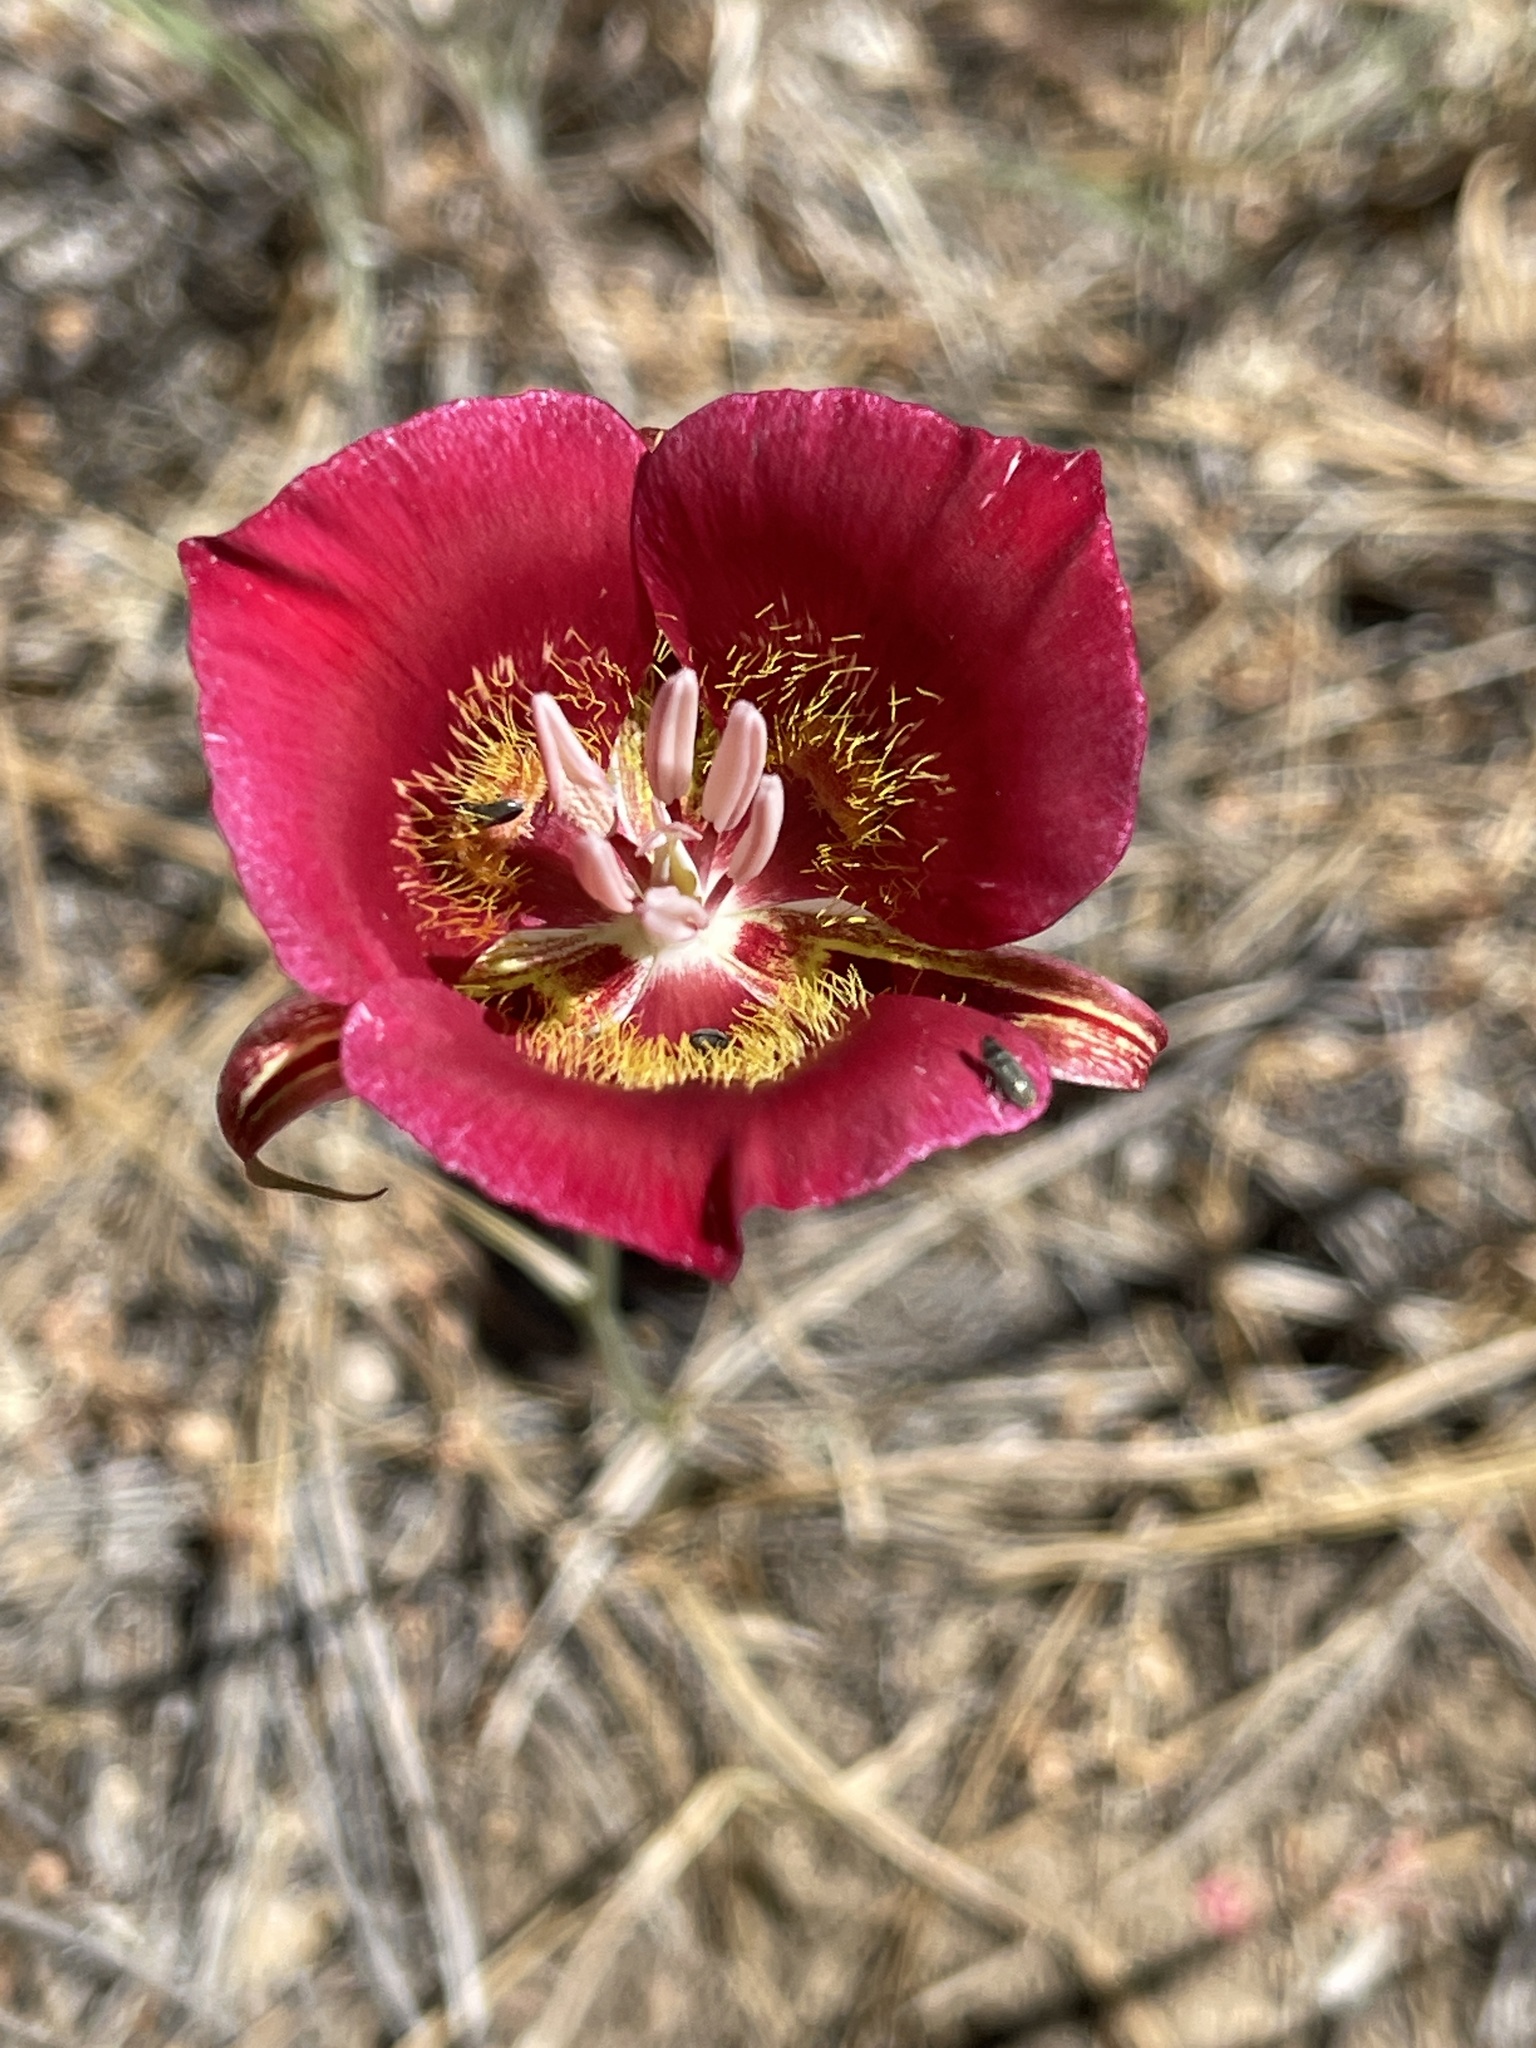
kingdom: Plantae
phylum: Tracheophyta
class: Liliopsida
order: Liliales
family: Liliaceae
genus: Calochortus
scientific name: Calochortus venustus
